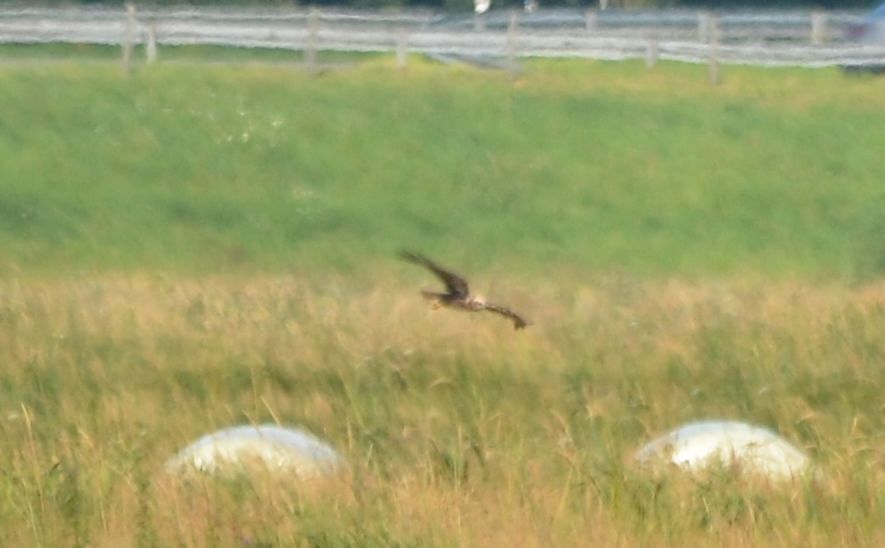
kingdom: Animalia
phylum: Chordata
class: Aves
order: Accipitriformes
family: Accipitridae
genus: Circus
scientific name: Circus aeruginosus
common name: Western marsh harrier
